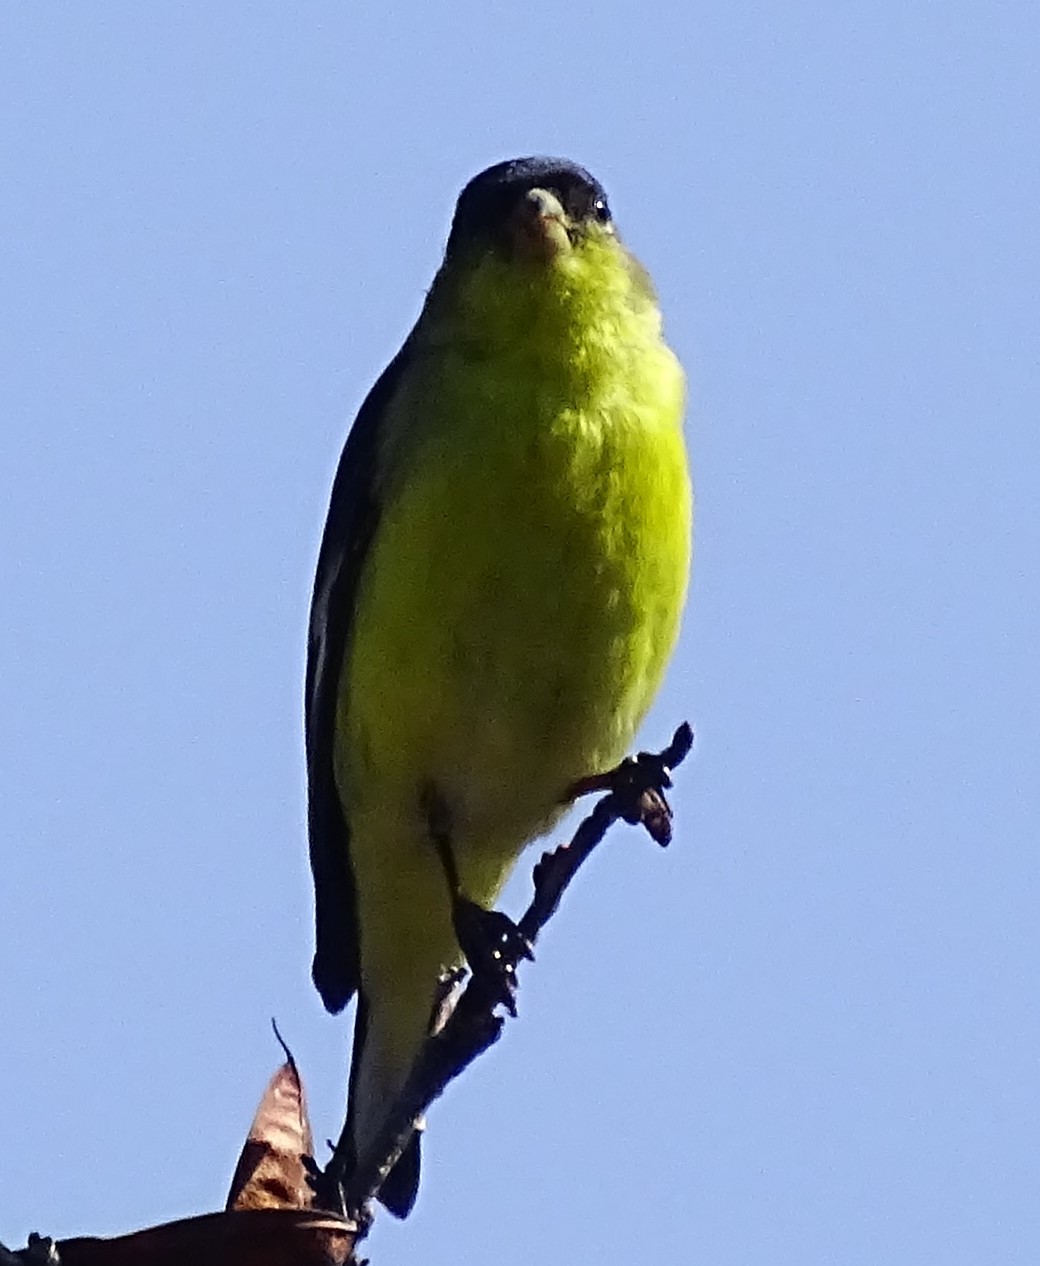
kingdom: Animalia
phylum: Chordata
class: Aves
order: Passeriformes
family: Fringillidae
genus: Spinus
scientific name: Spinus psaltria
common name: Lesser goldfinch
